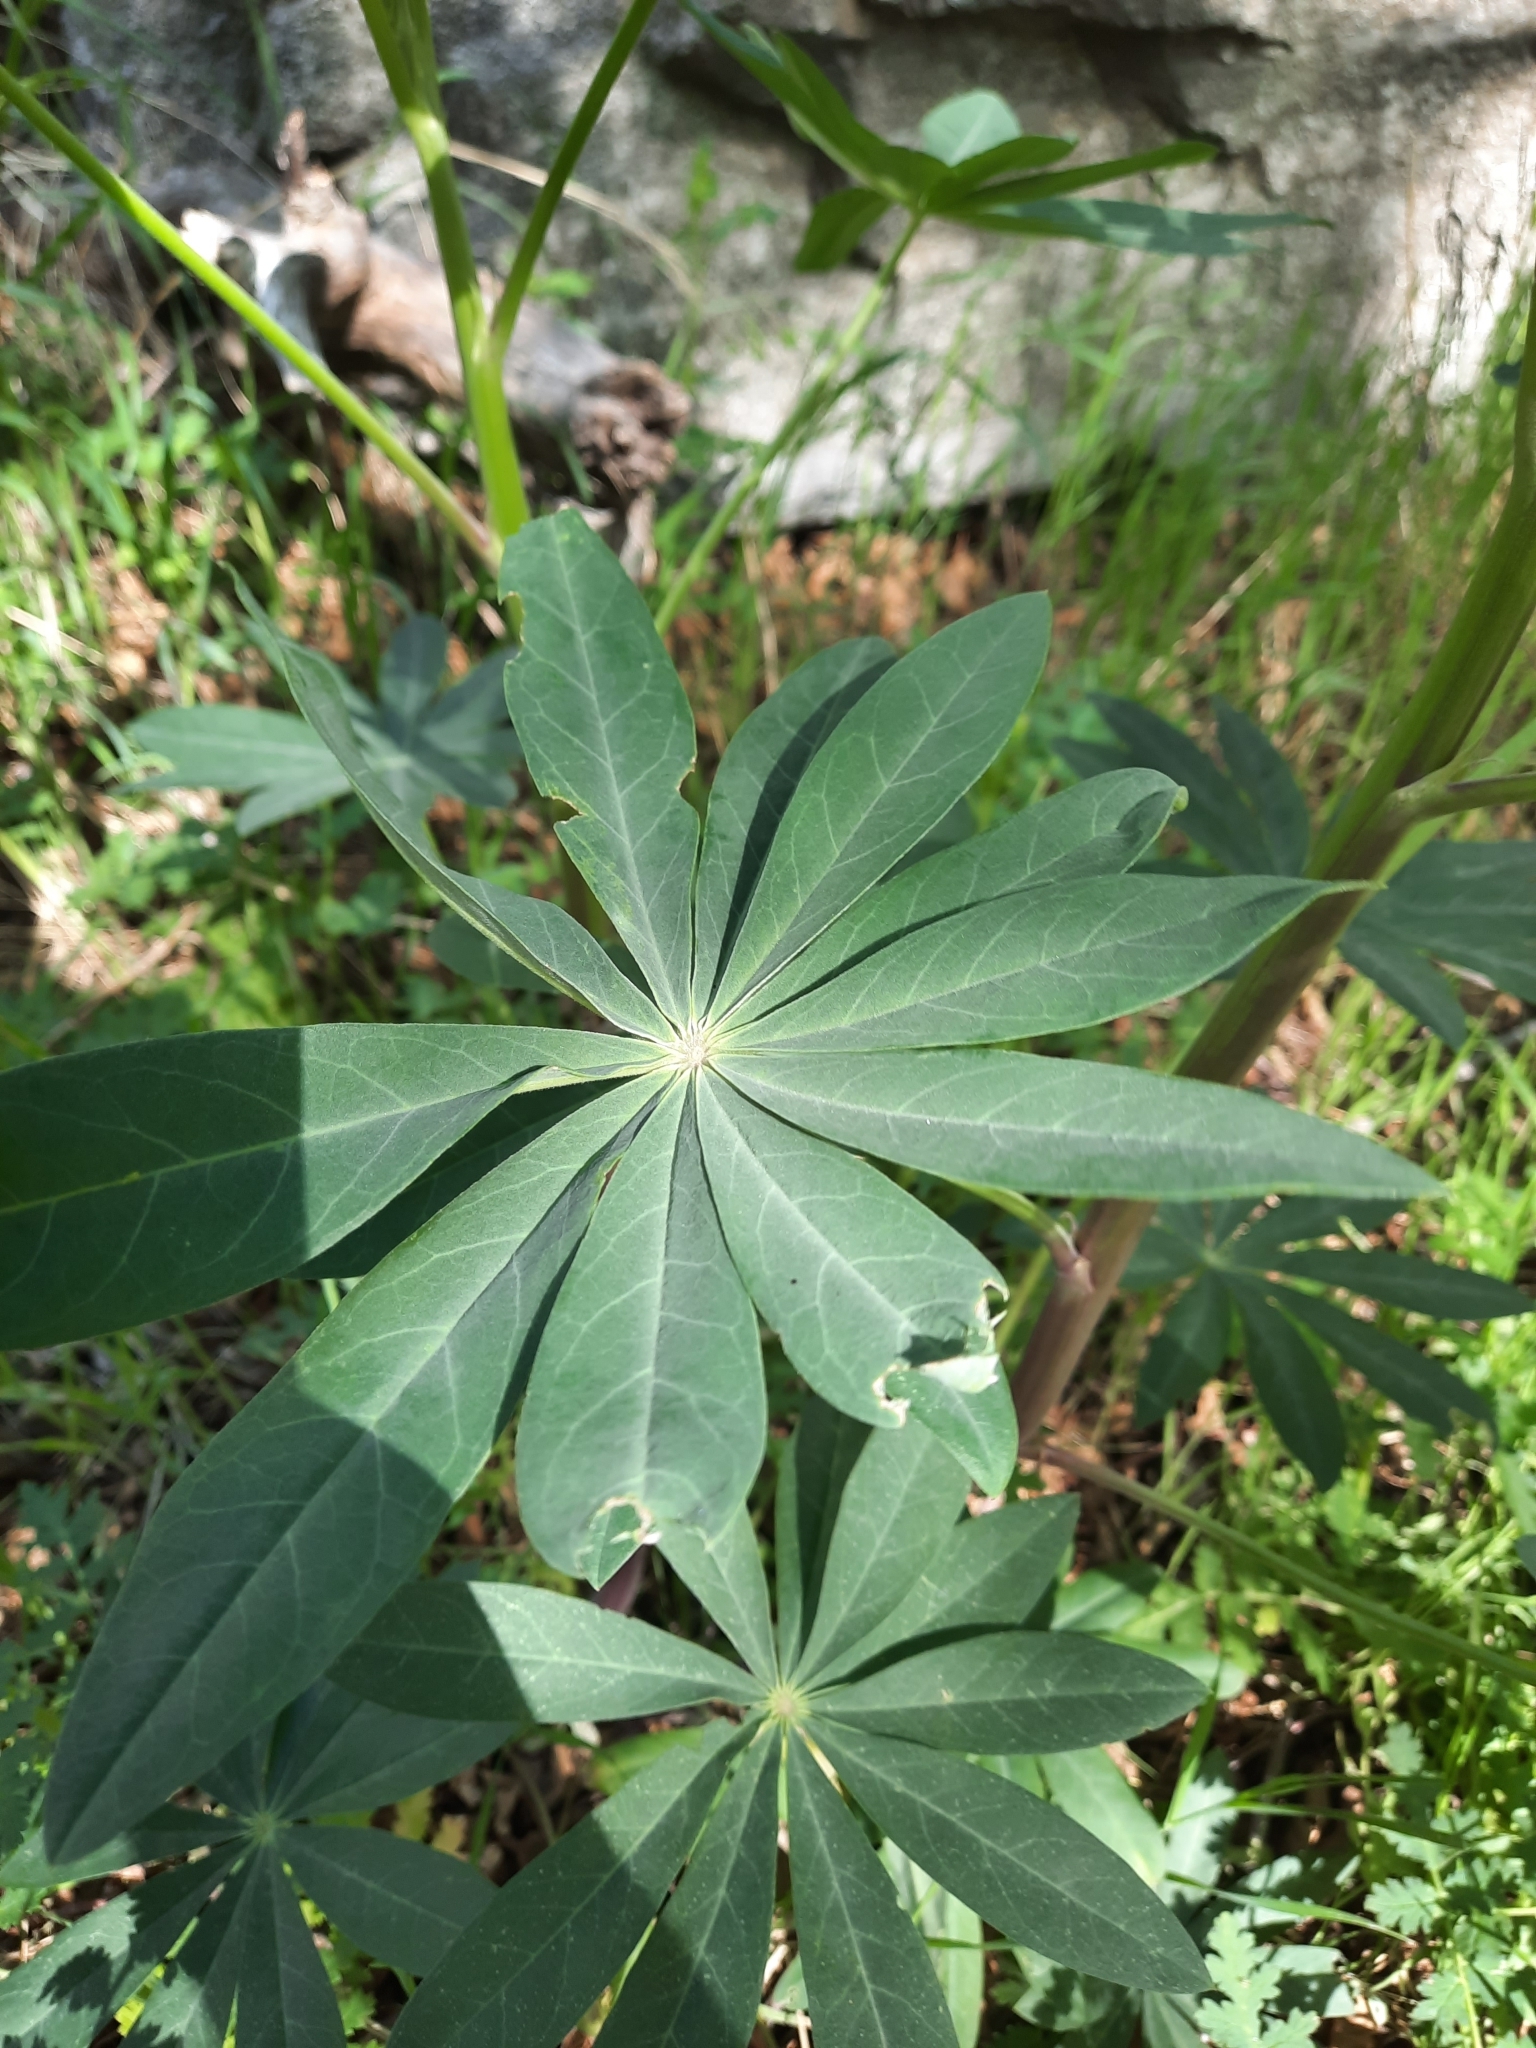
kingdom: Plantae
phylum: Tracheophyta
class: Magnoliopsida
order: Fabales
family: Fabaceae
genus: Lupinus
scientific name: Lupinus polyphyllus
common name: Garden lupin
